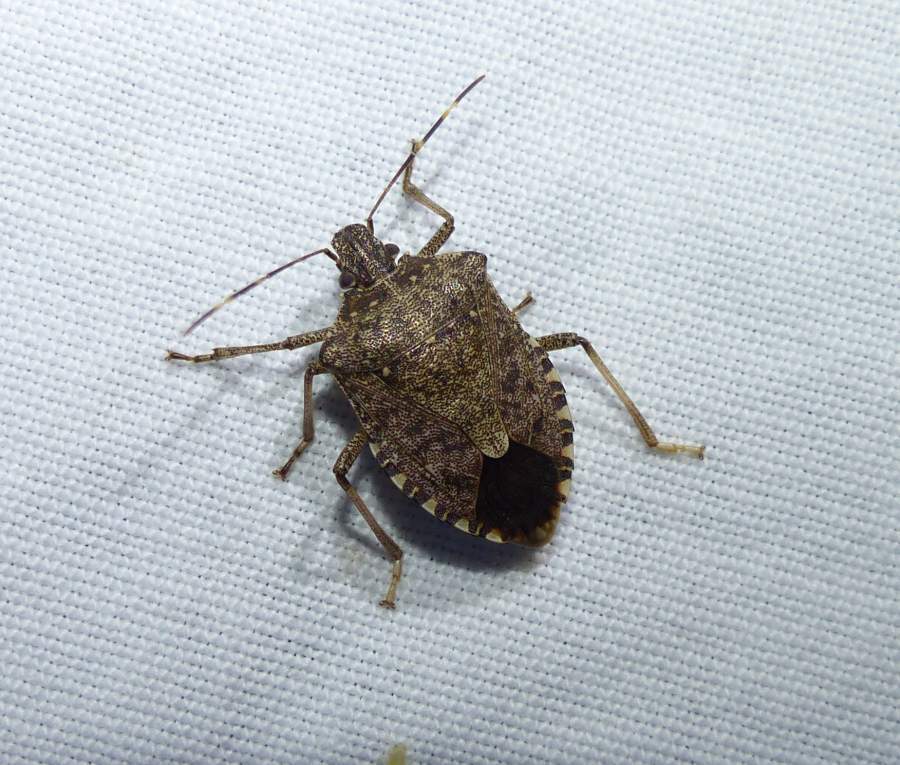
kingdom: Animalia
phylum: Arthropoda
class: Insecta
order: Hemiptera
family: Pentatomidae
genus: Halyomorpha
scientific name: Halyomorpha halys
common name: Brown marmorated stink bug
